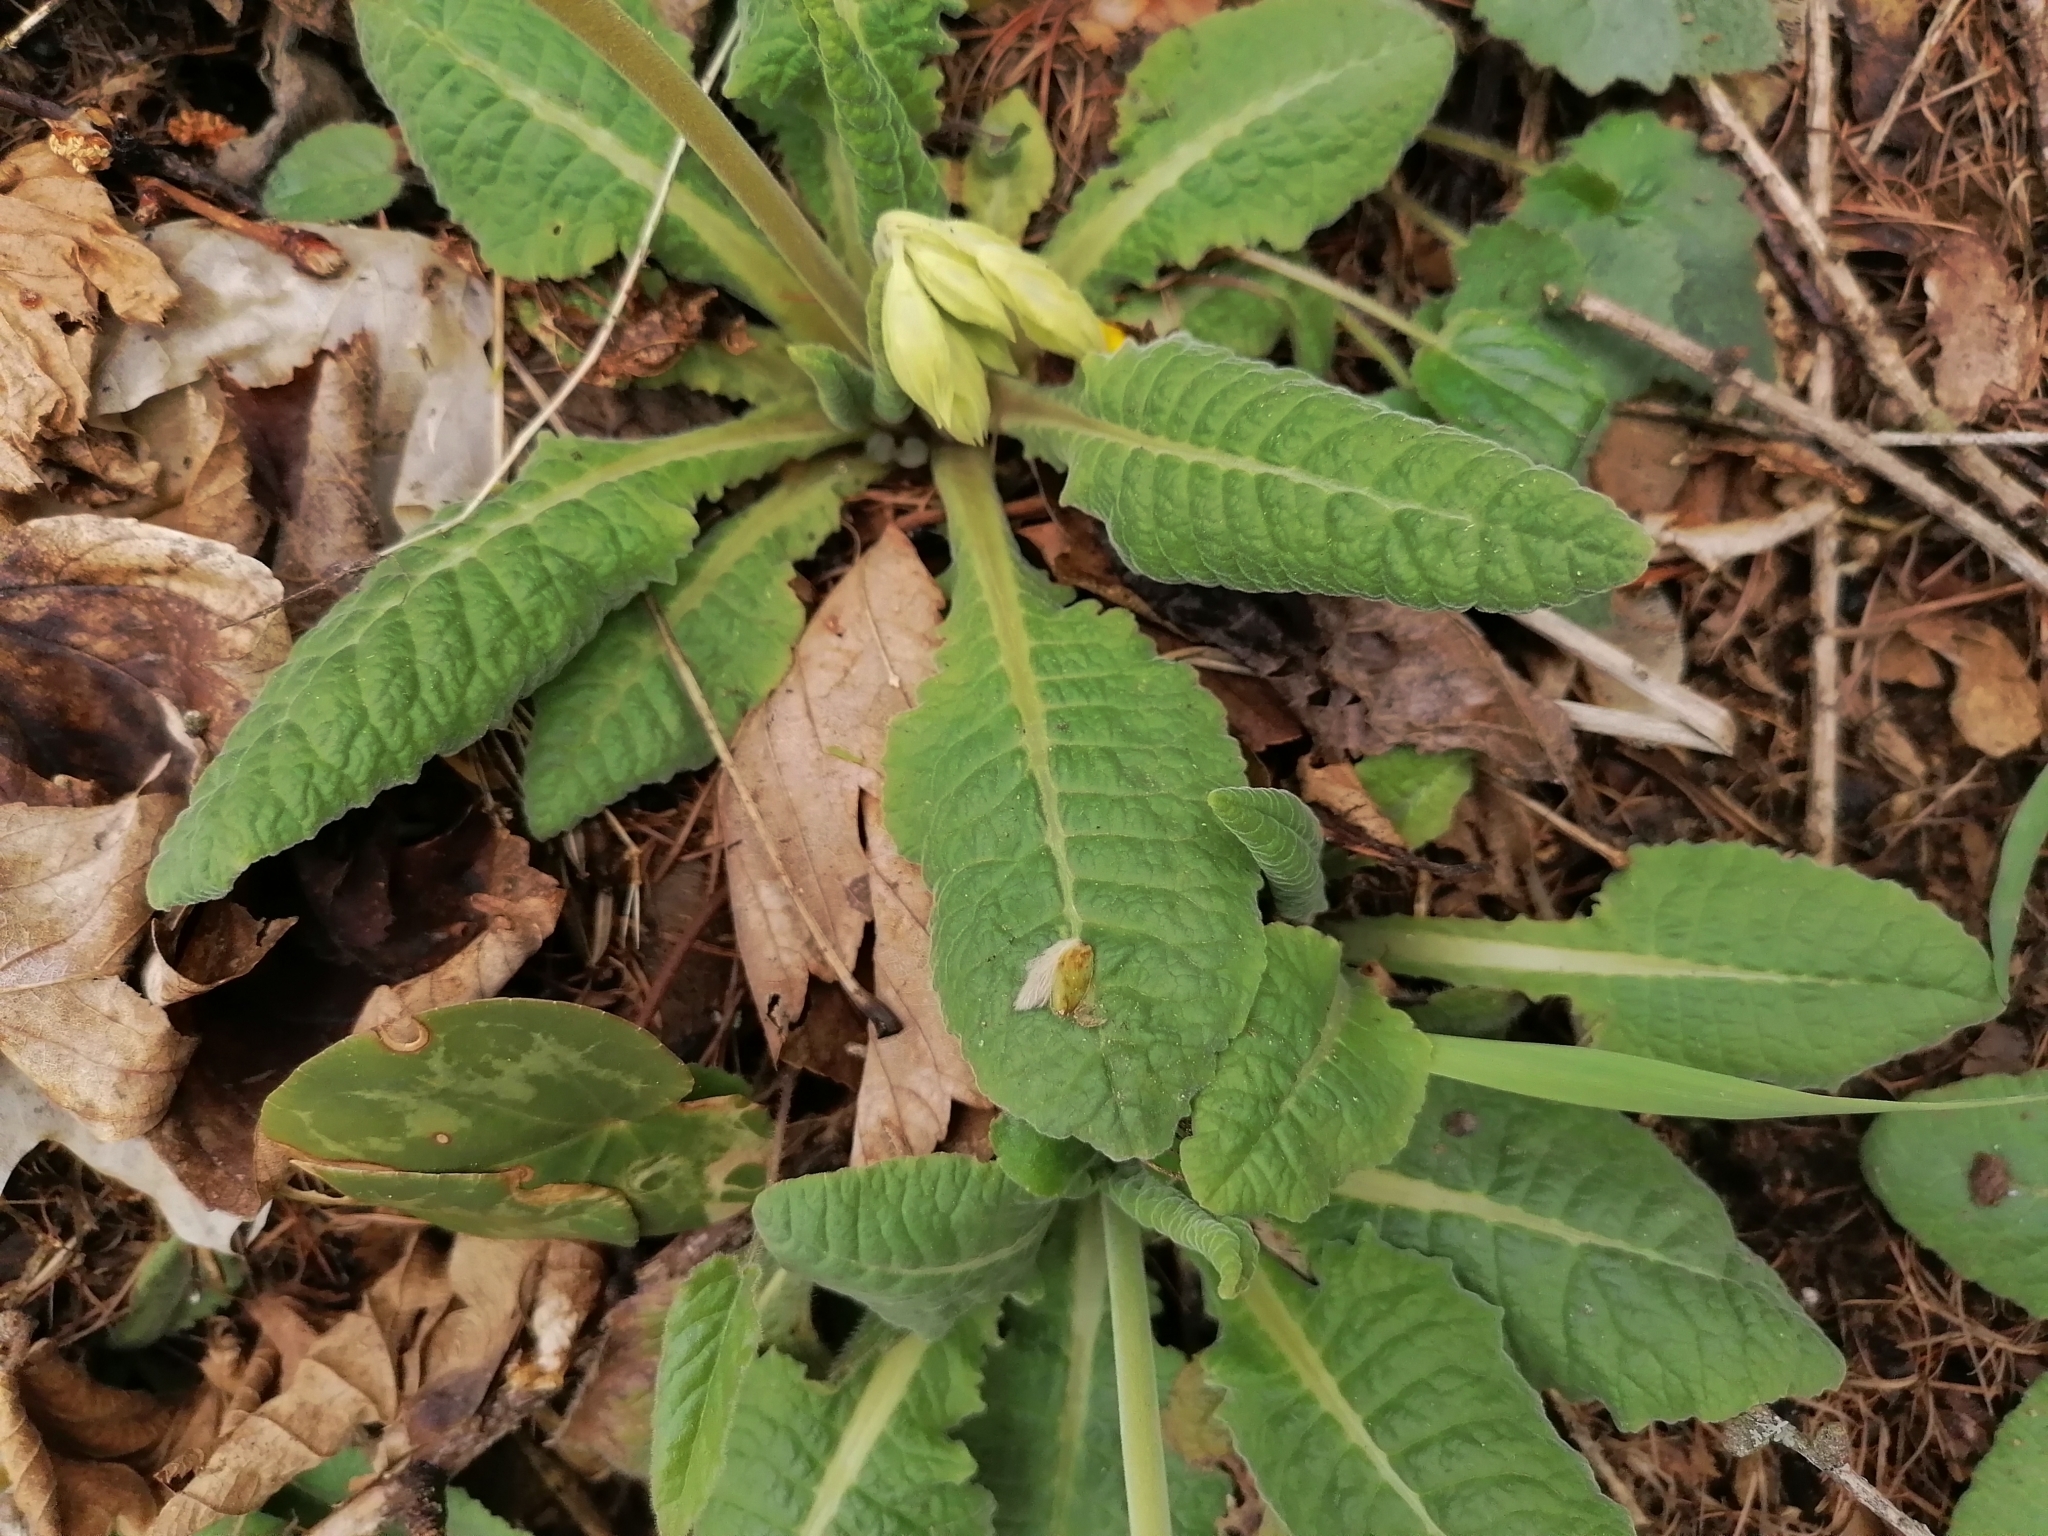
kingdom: Plantae
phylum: Tracheophyta
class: Magnoliopsida
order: Ericales
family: Primulaceae
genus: Primula
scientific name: Primula veris
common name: Cowslip
